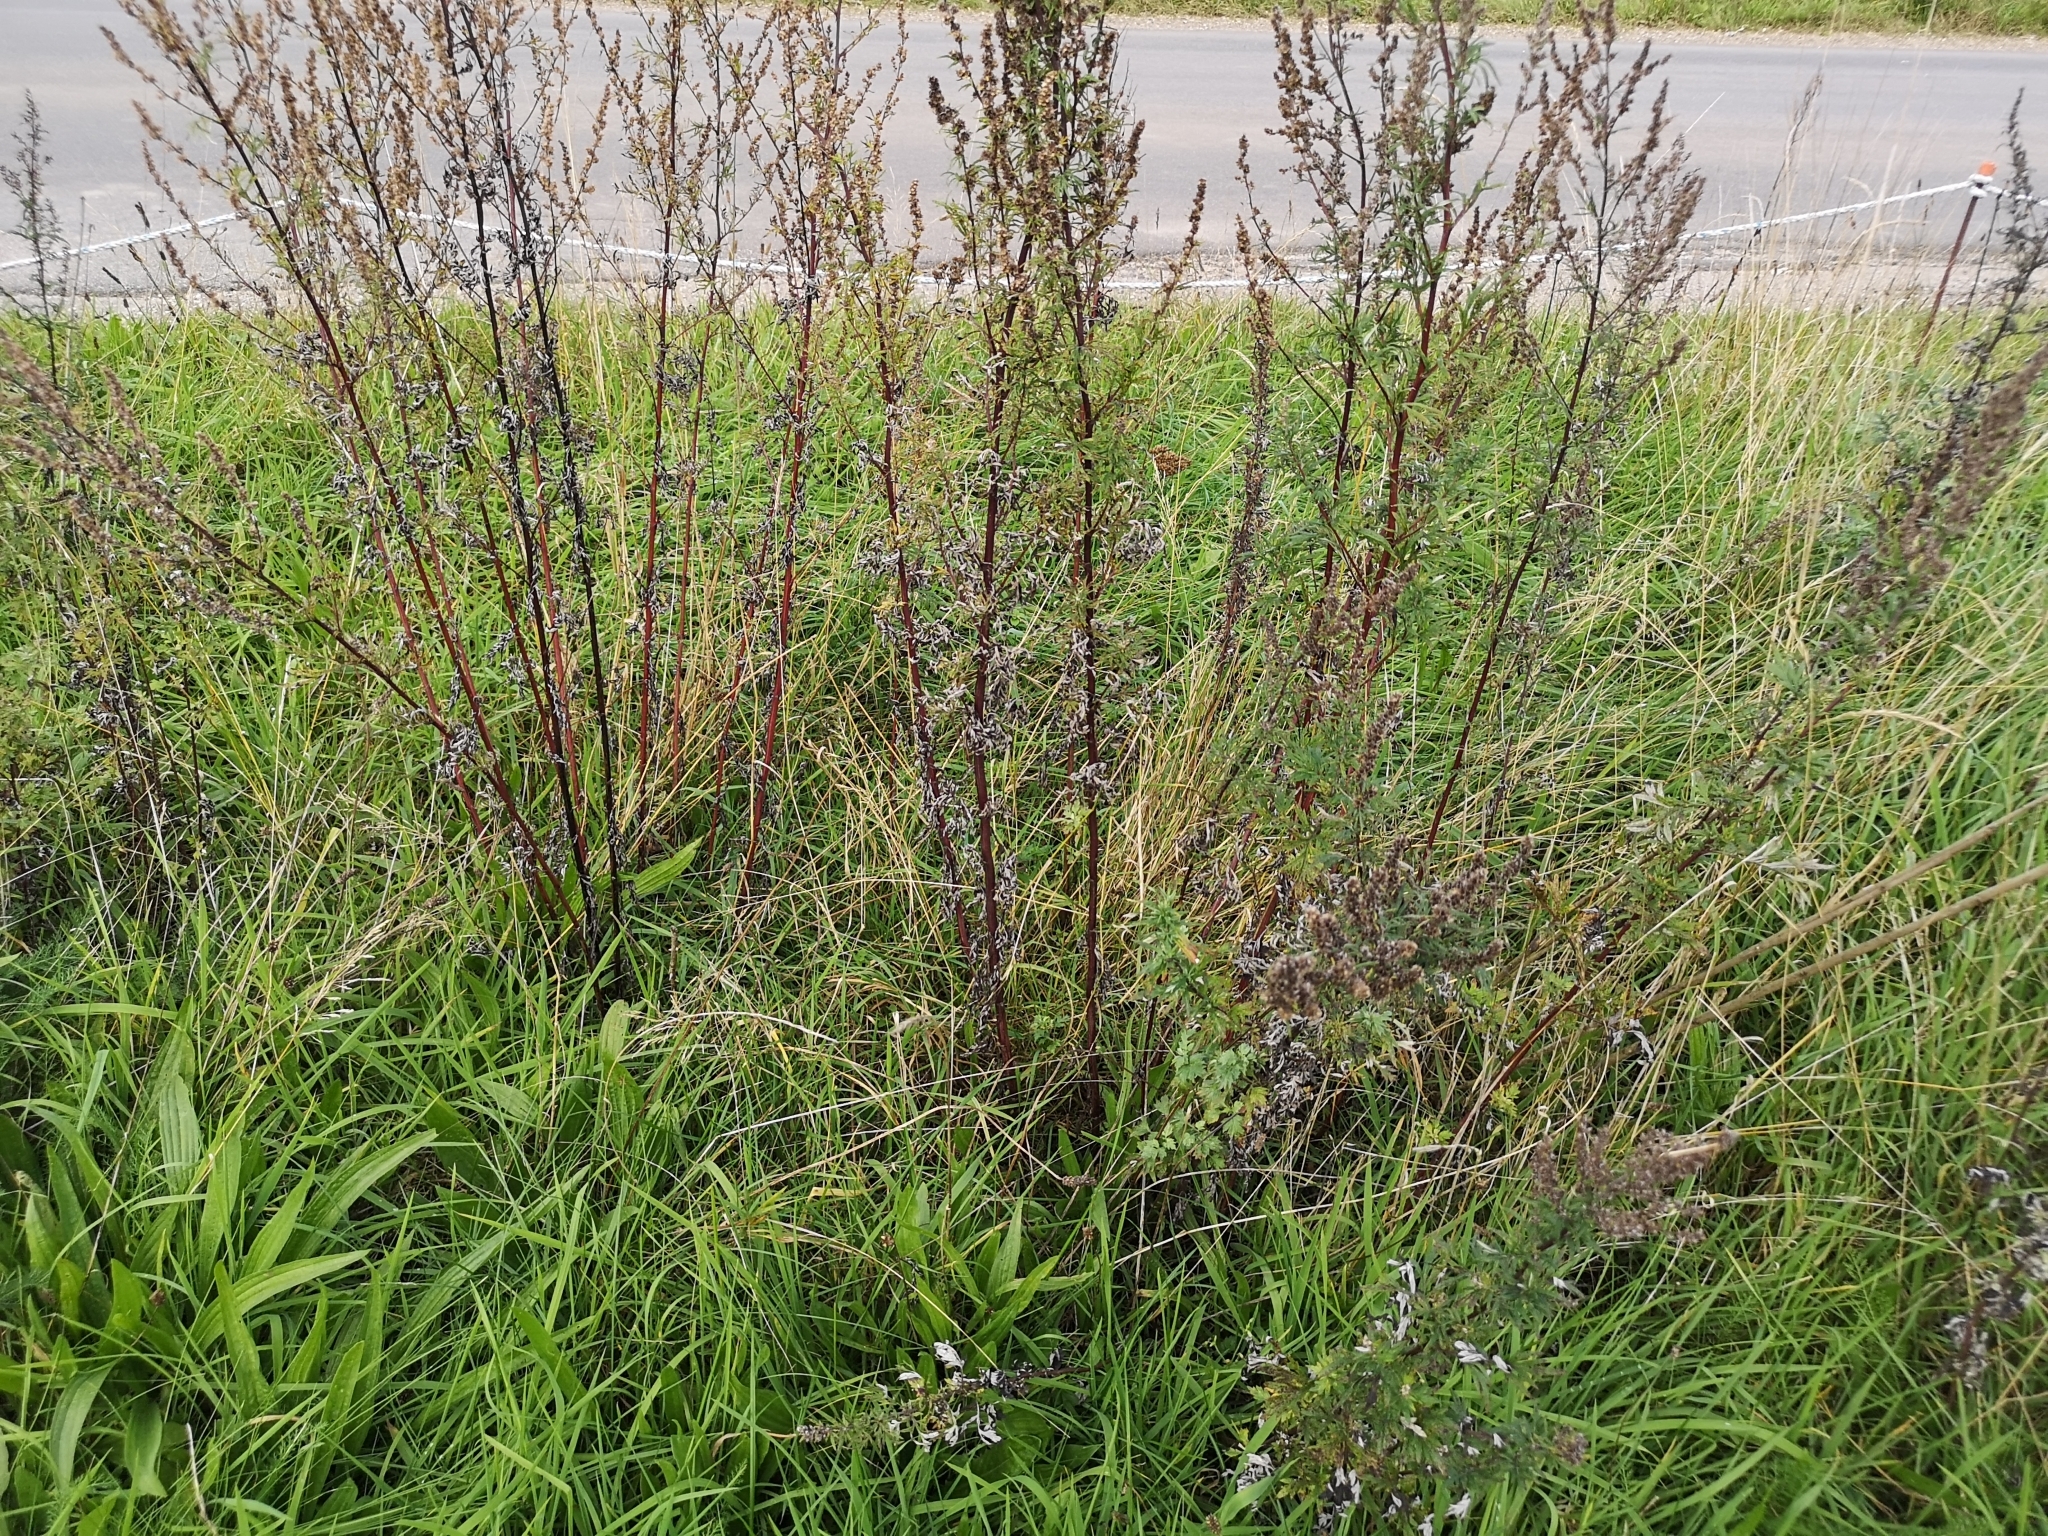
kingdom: Plantae
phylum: Tracheophyta
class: Magnoliopsida
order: Asterales
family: Asteraceae
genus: Artemisia
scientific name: Artemisia vulgaris
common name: Mugwort
